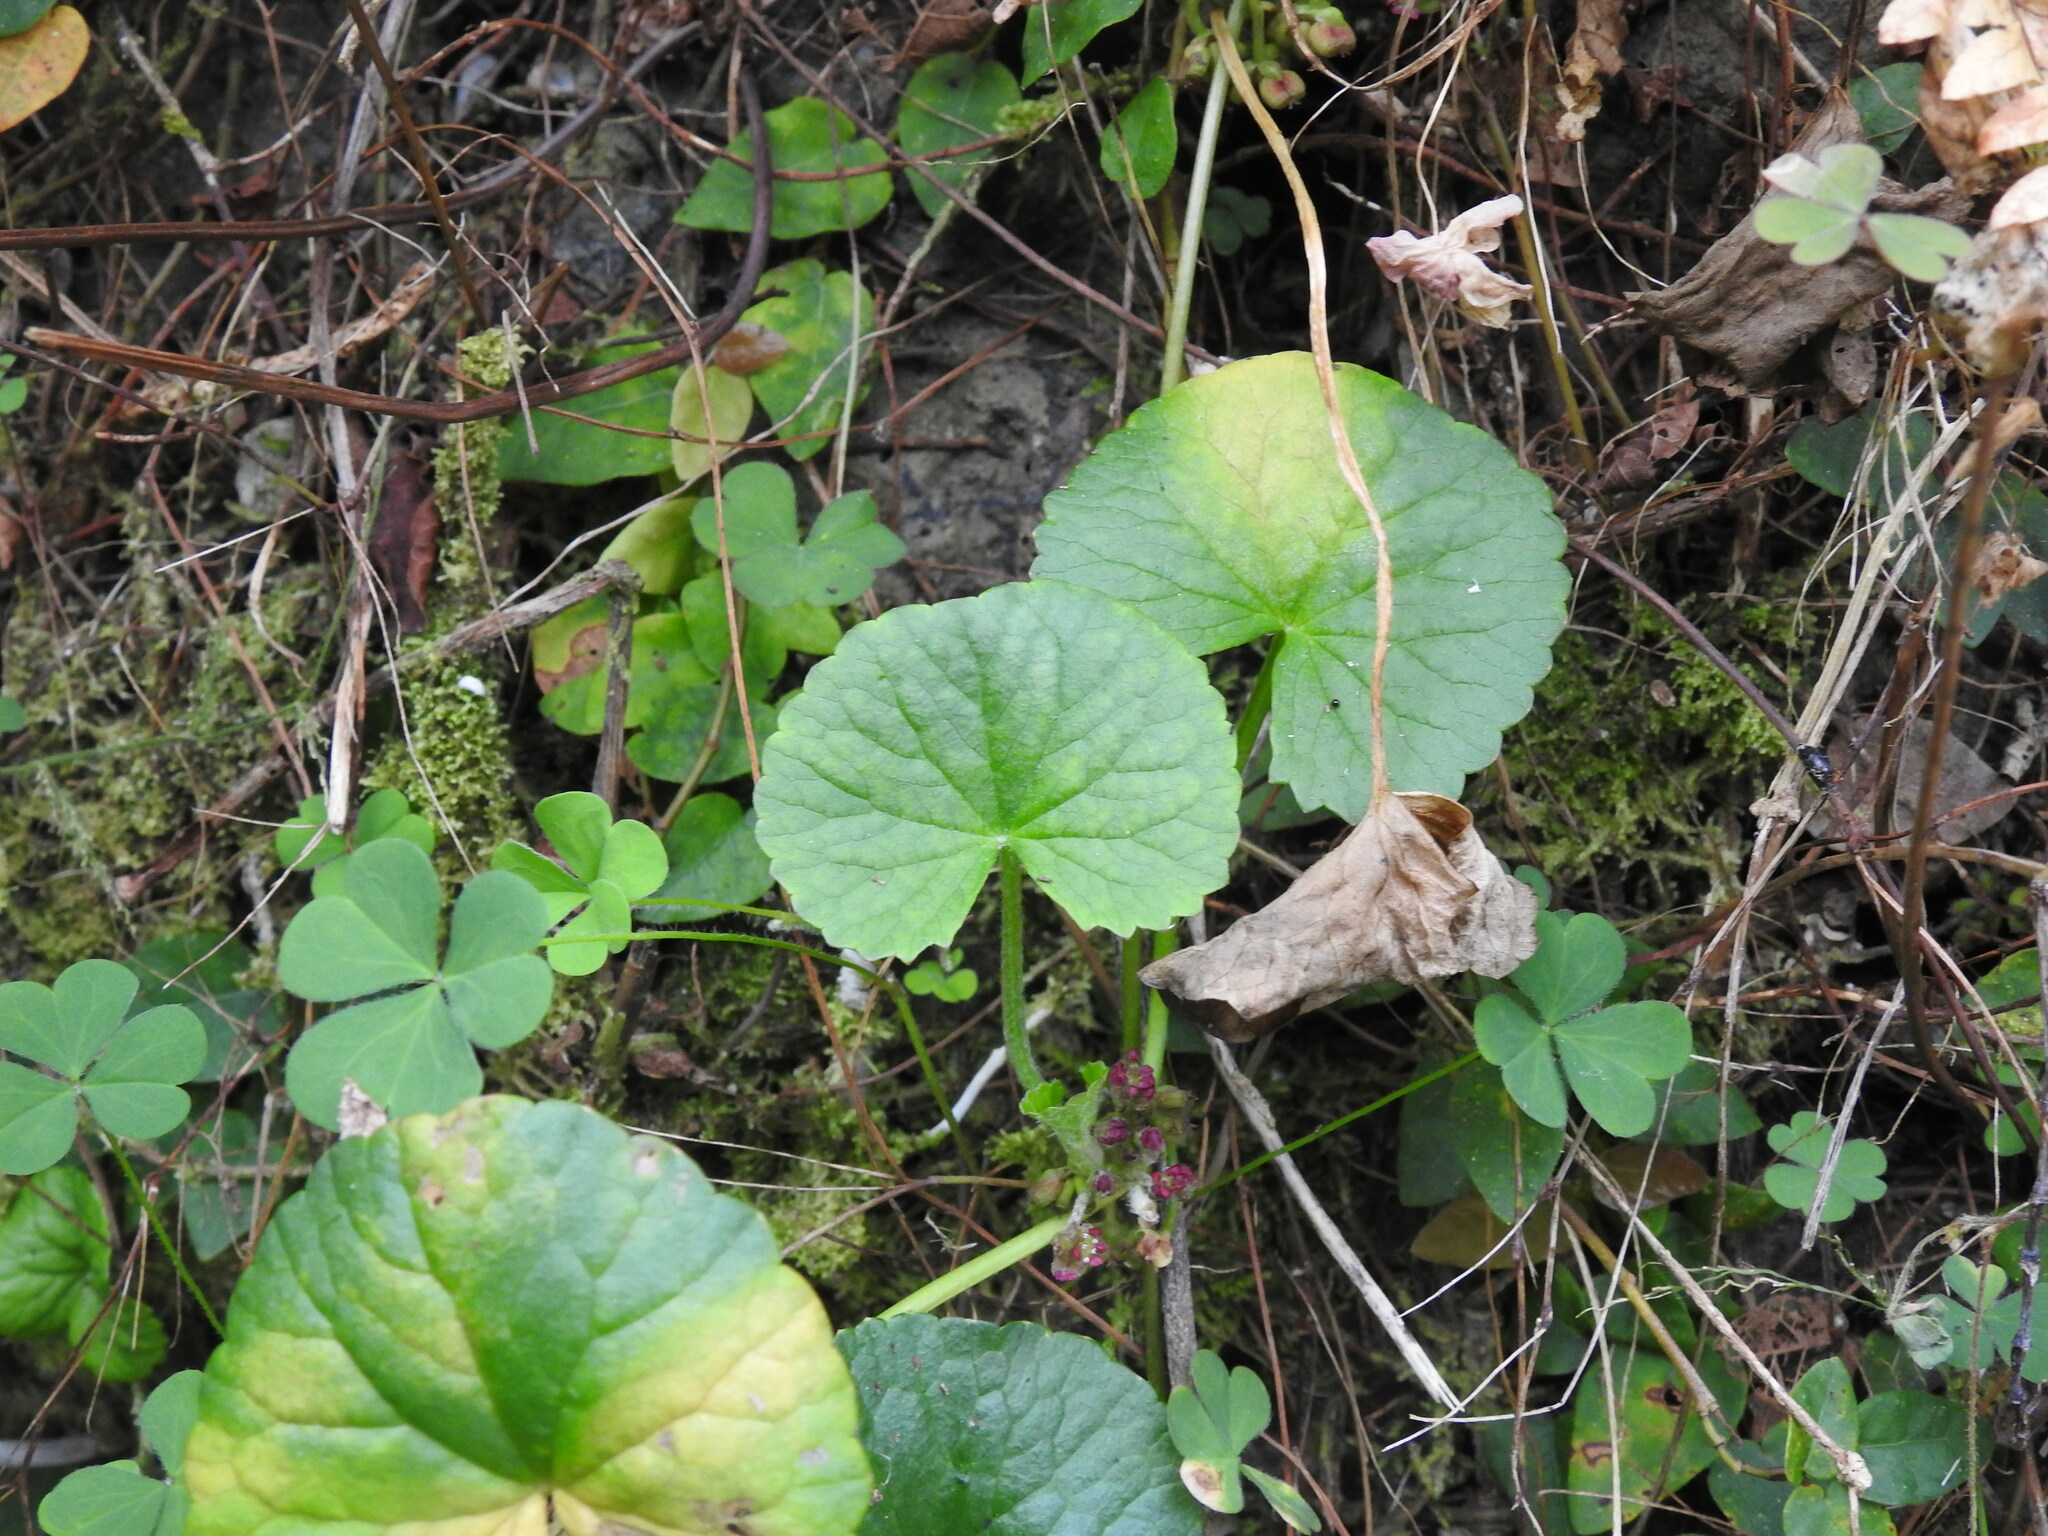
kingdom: Plantae
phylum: Tracheophyta
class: Magnoliopsida
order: Apiales
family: Apiaceae
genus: Centella
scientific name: Centella asiatica
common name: Spadeleaf
